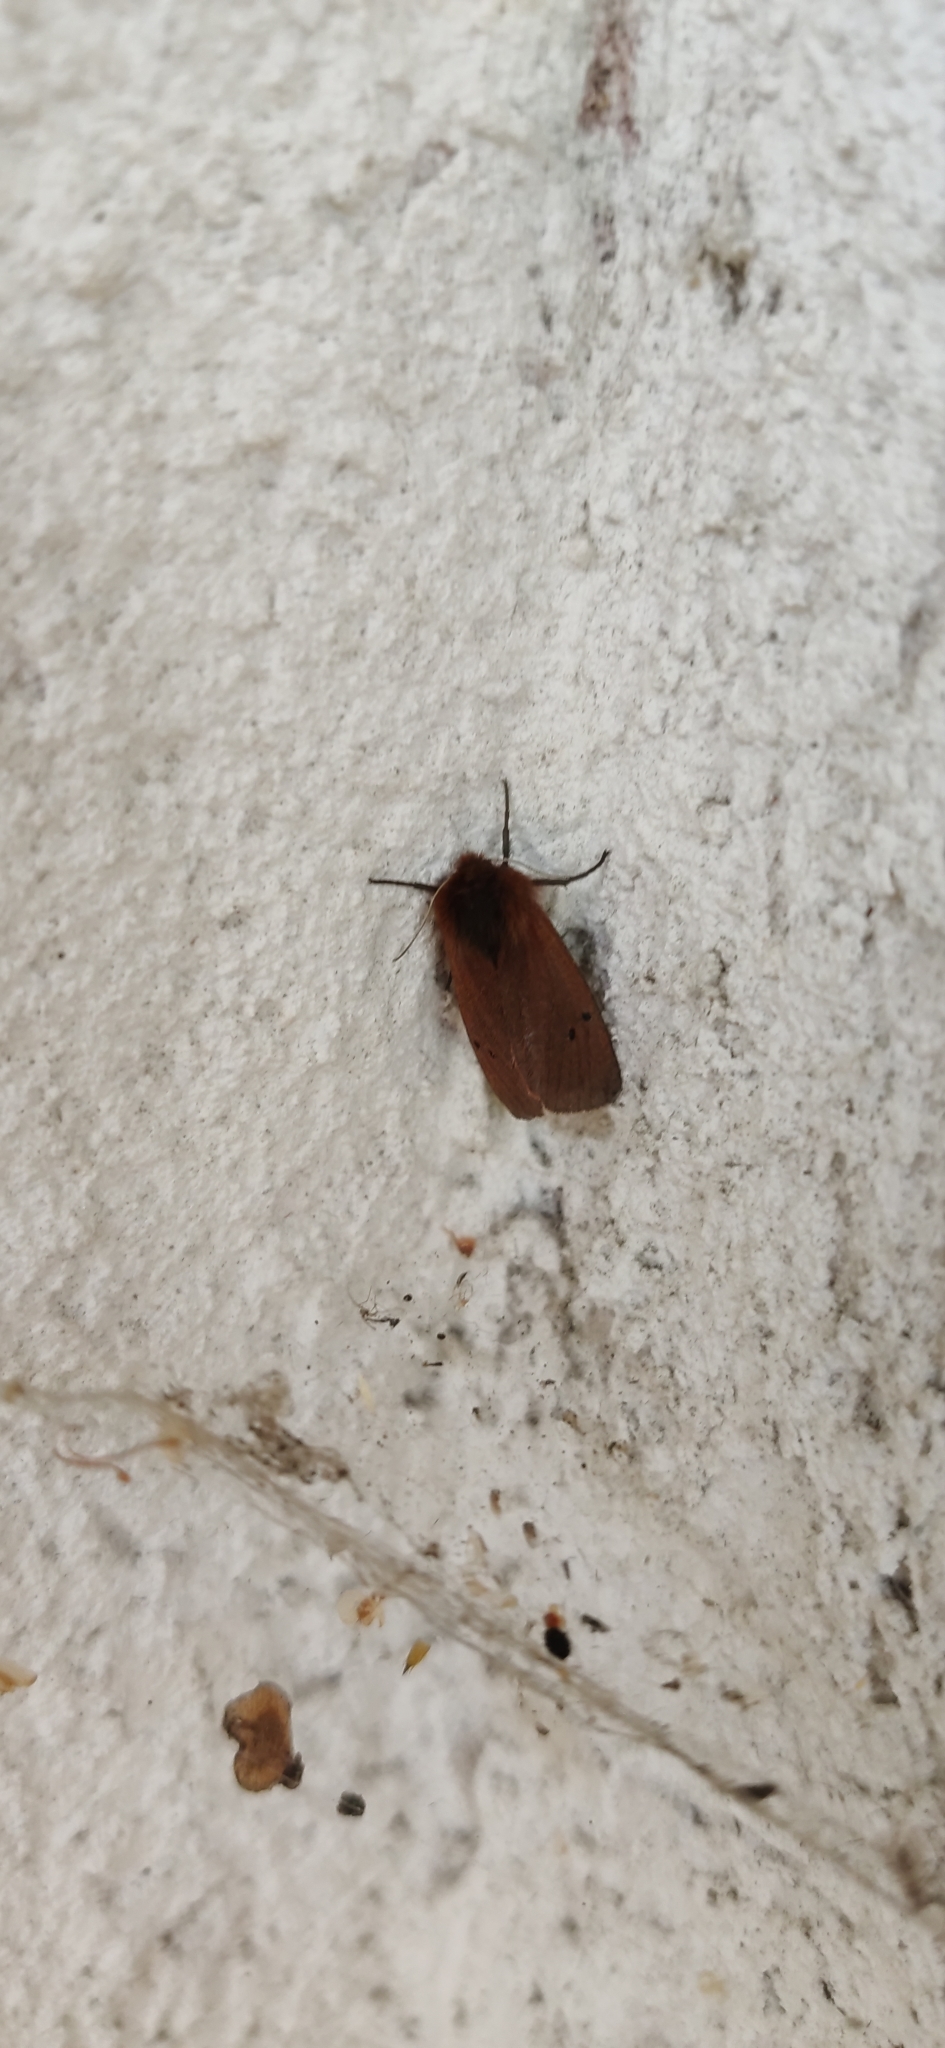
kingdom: Animalia
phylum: Arthropoda
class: Insecta
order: Lepidoptera
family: Erebidae
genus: Phragmatobia
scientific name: Phragmatobia fuliginosa
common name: Ruby tiger
